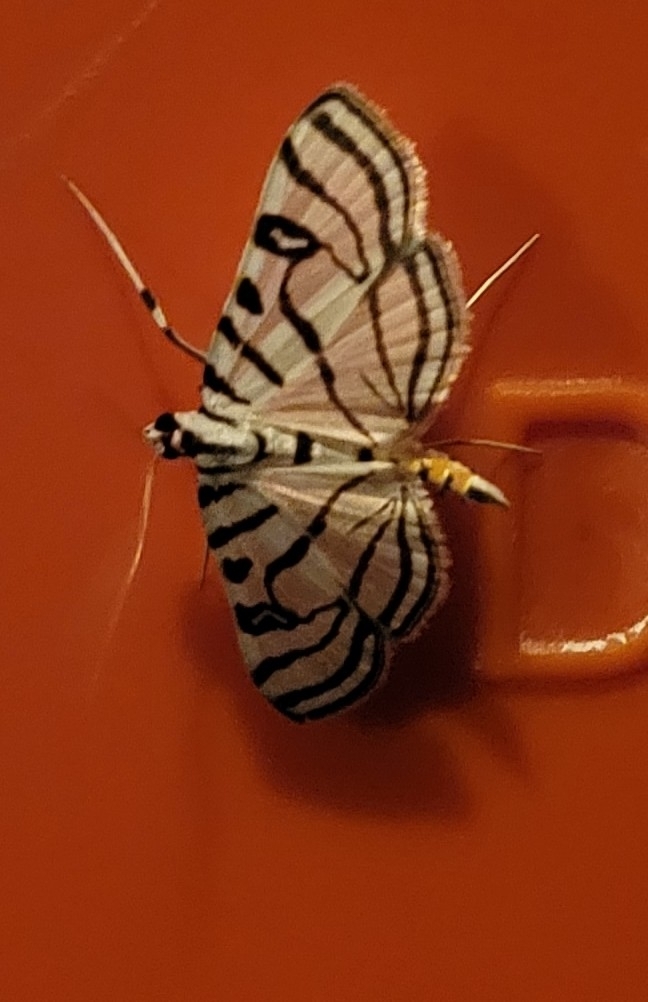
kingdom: Animalia
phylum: Arthropoda
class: Insecta
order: Lepidoptera
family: Crambidae
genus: Conchylodes
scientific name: Conchylodes ovulalis
